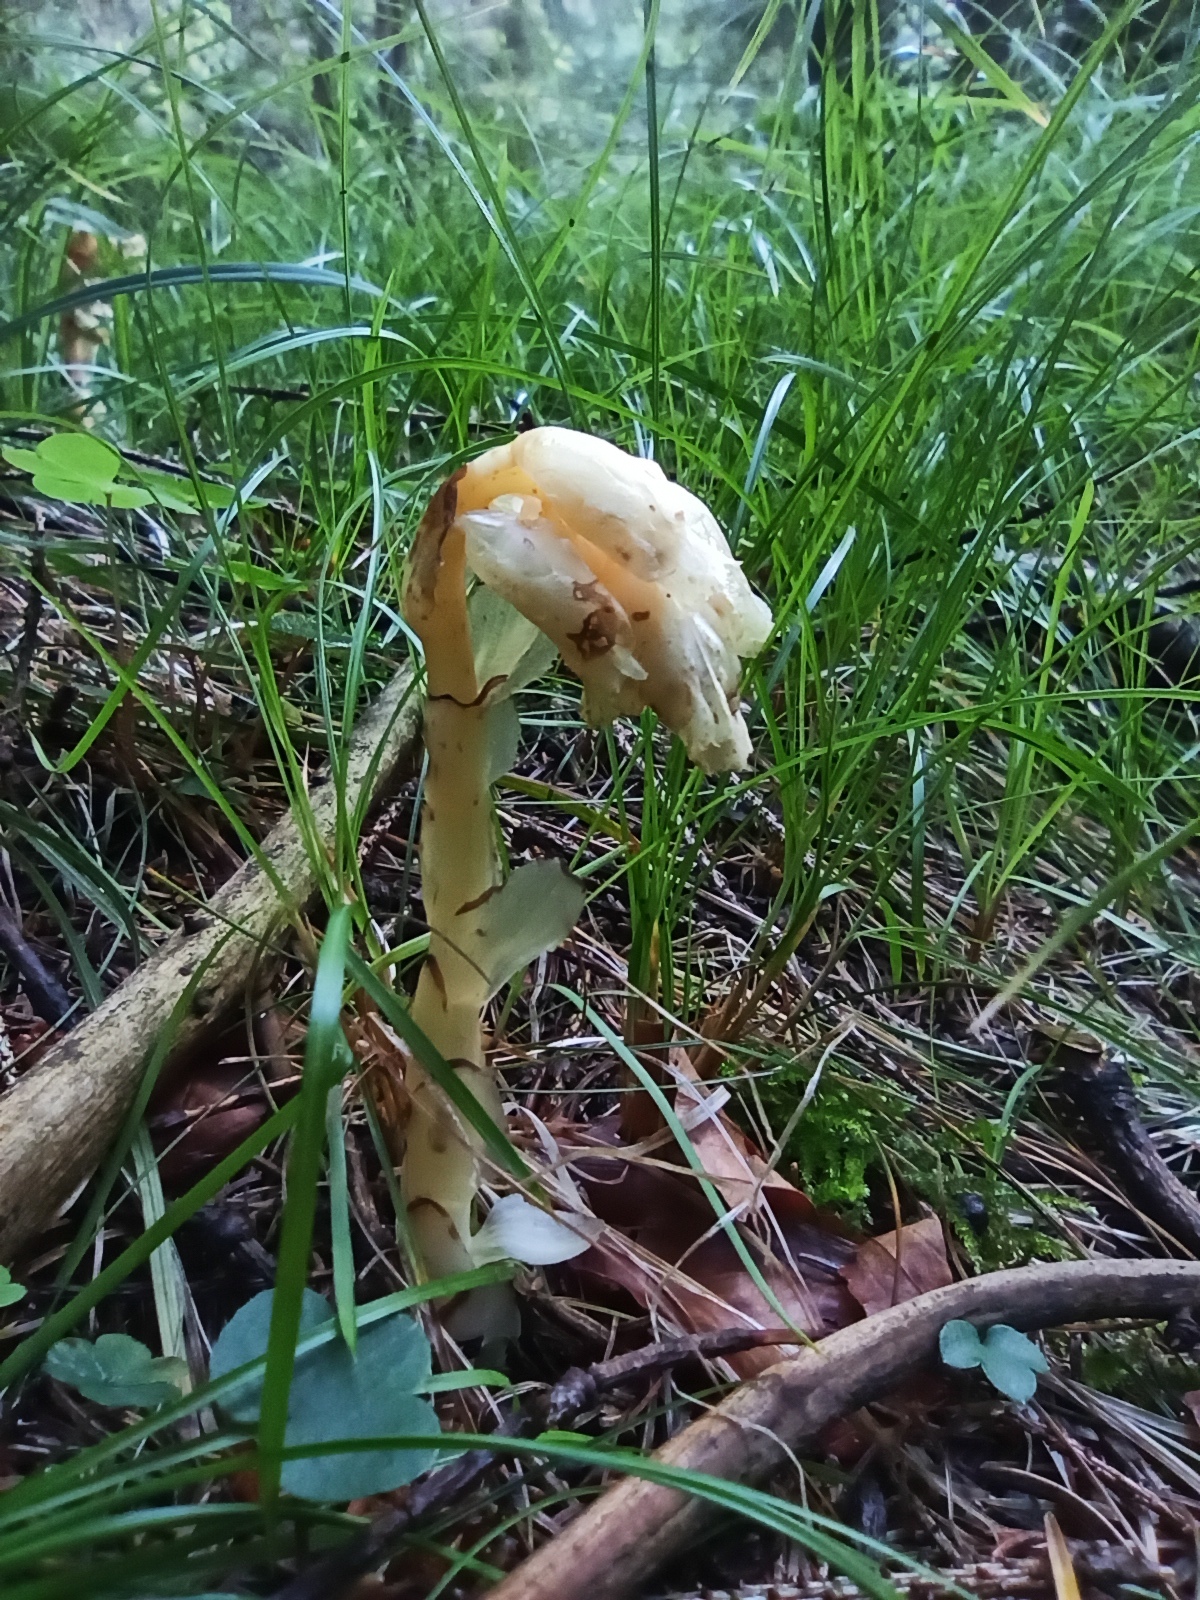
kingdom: Plantae
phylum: Tracheophyta
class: Magnoliopsida
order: Ericales
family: Ericaceae
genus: Hypopitys
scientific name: Hypopitys monotropa
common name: Yellow bird's-nest
